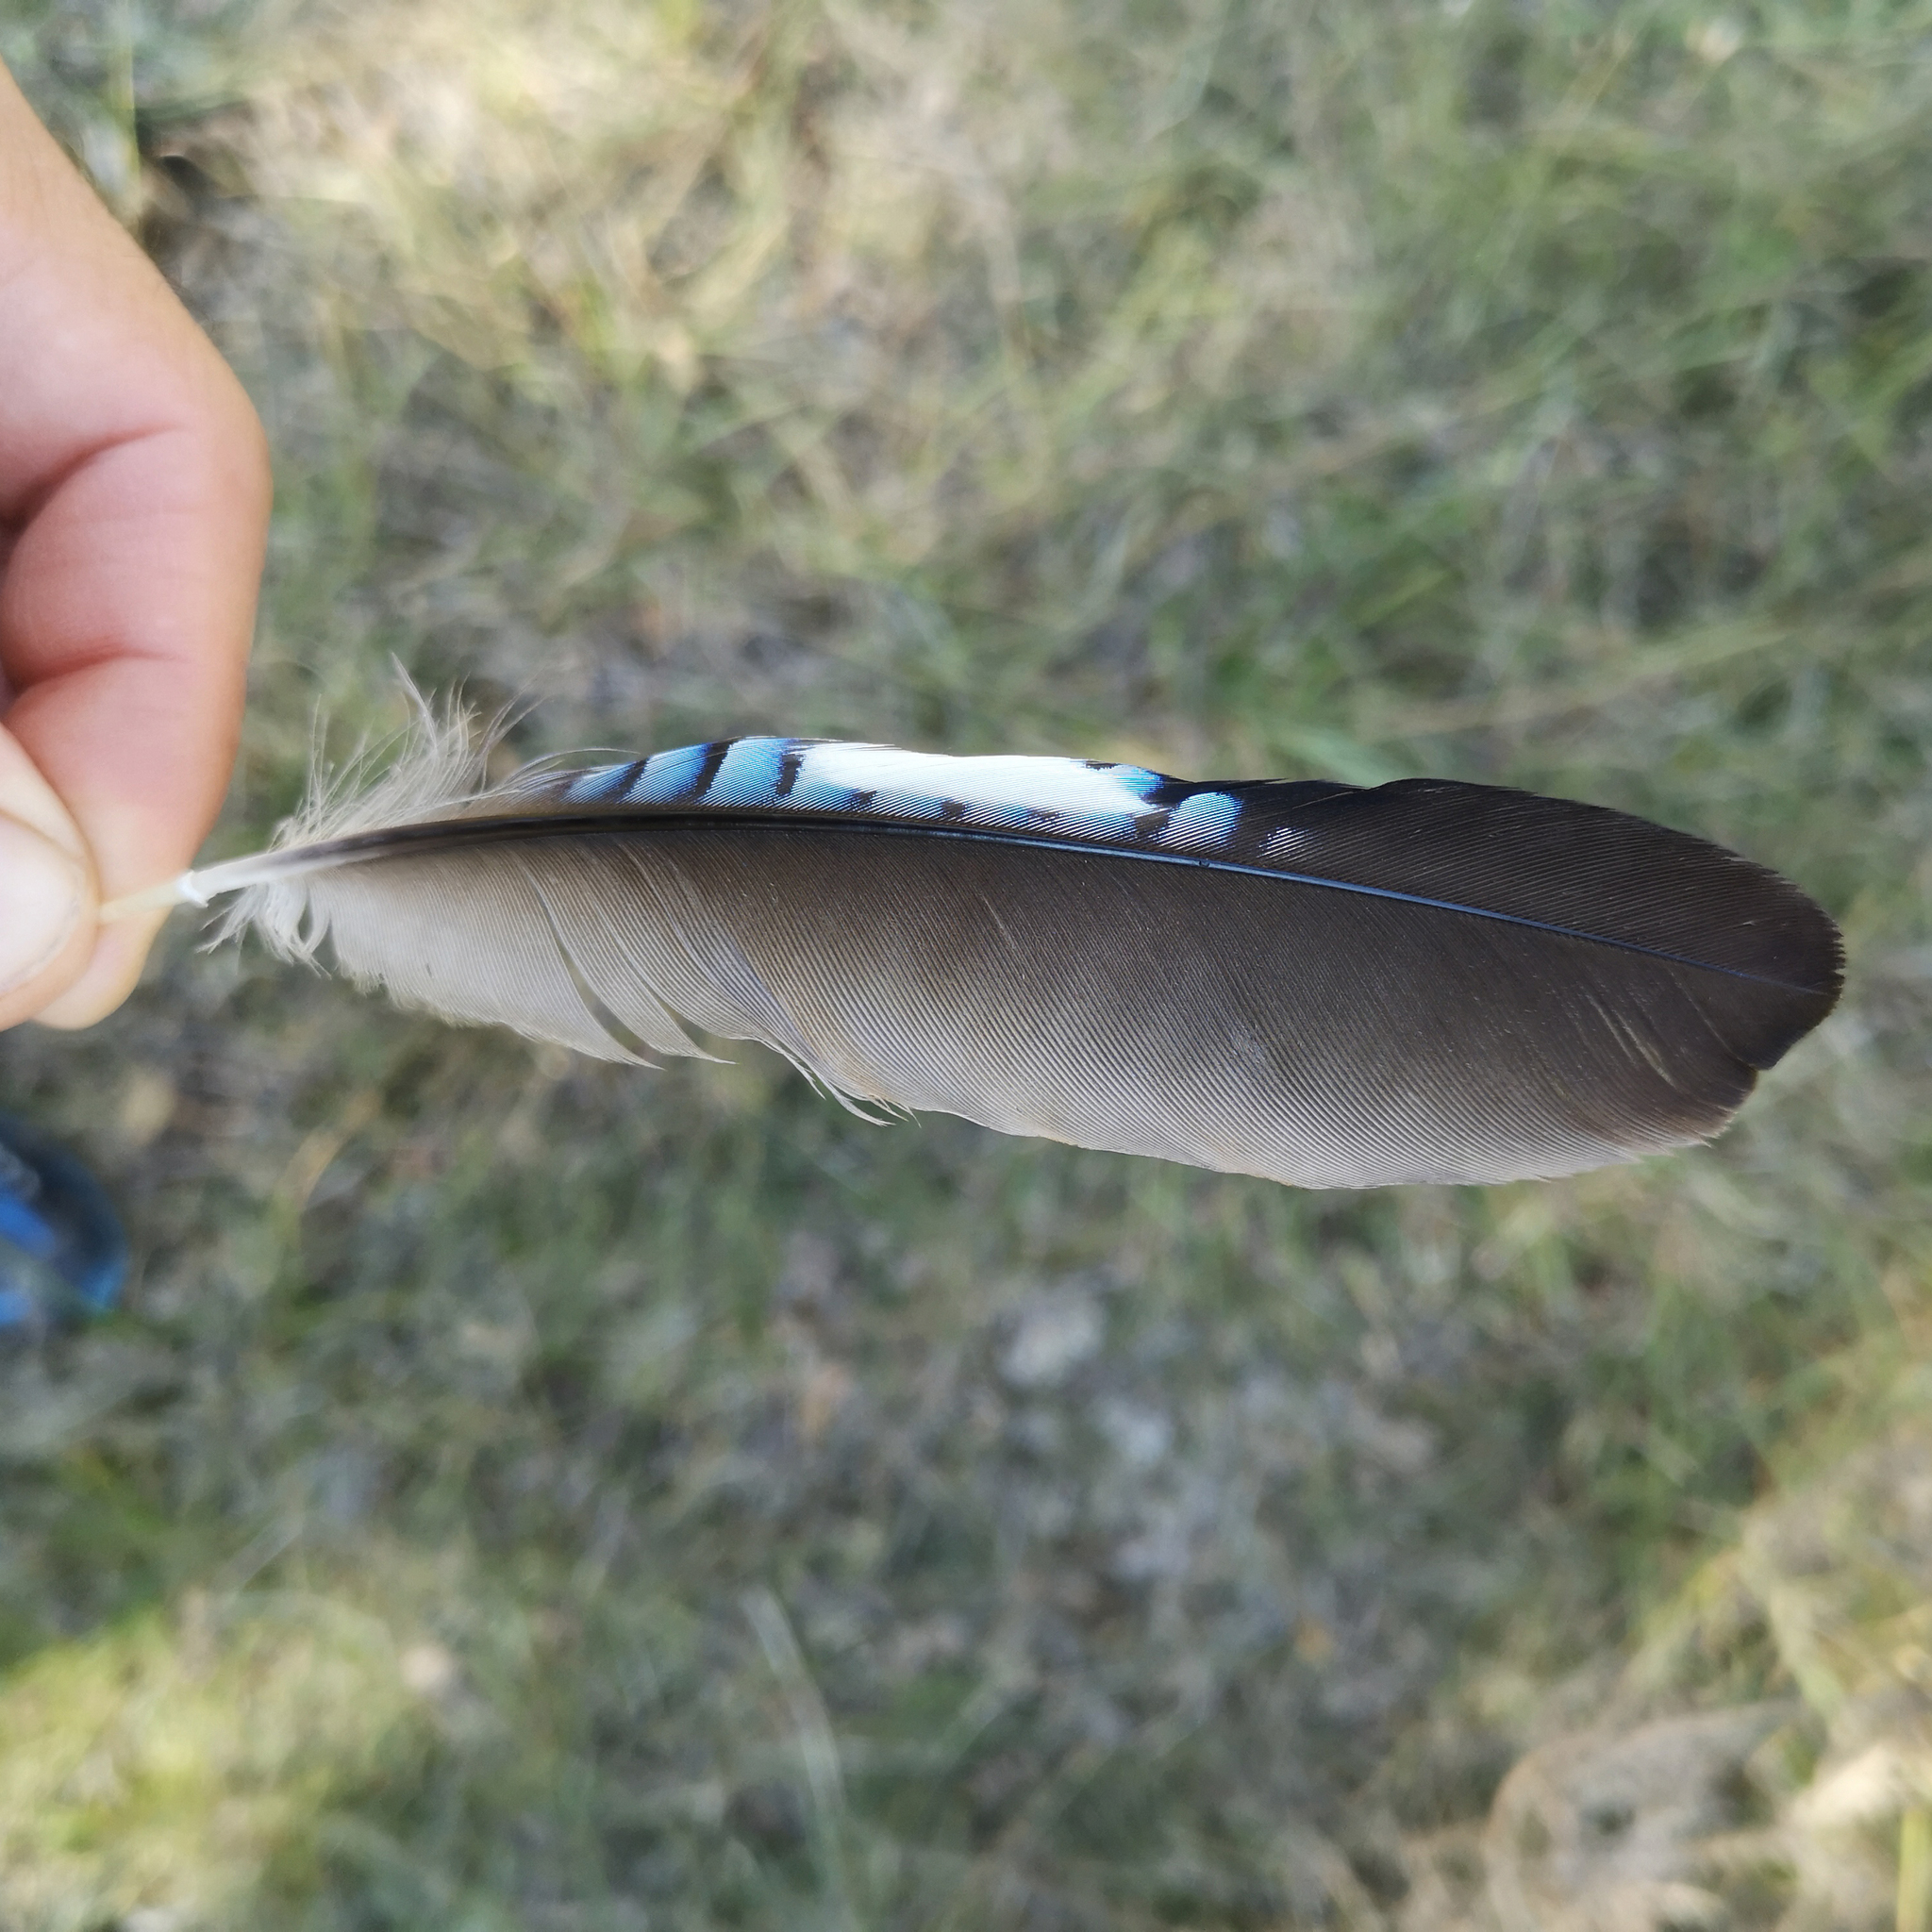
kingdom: Animalia
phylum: Chordata
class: Aves
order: Passeriformes
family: Corvidae
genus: Garrulus
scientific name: Garrulus glandarius
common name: Eurasian jay
